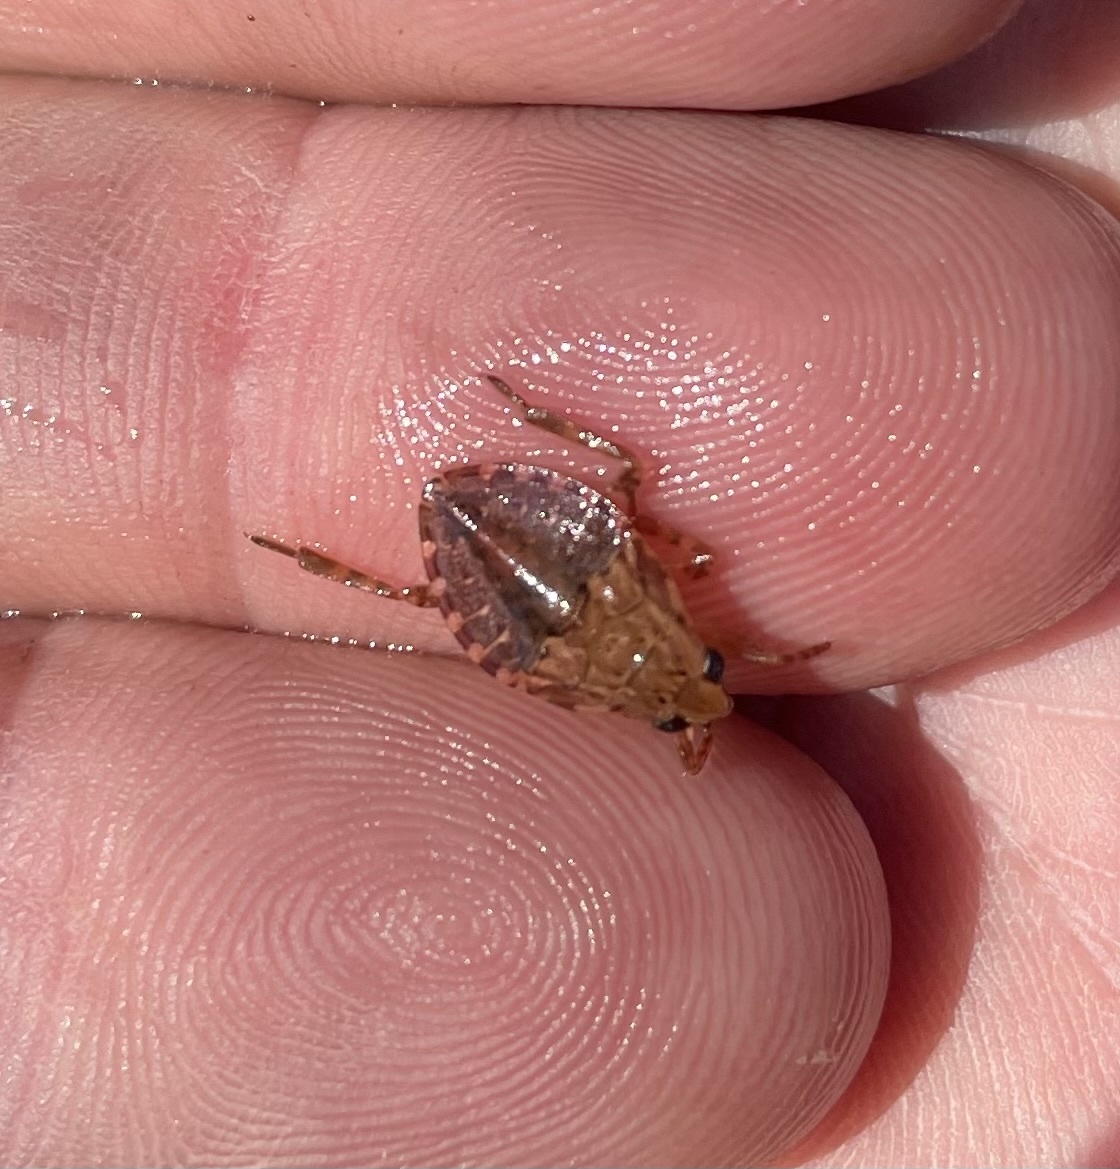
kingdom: Animalia
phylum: Arthropoda
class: Insecta
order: Hemiptera
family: Belostomatidae
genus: Belostoma
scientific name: Belostoma
